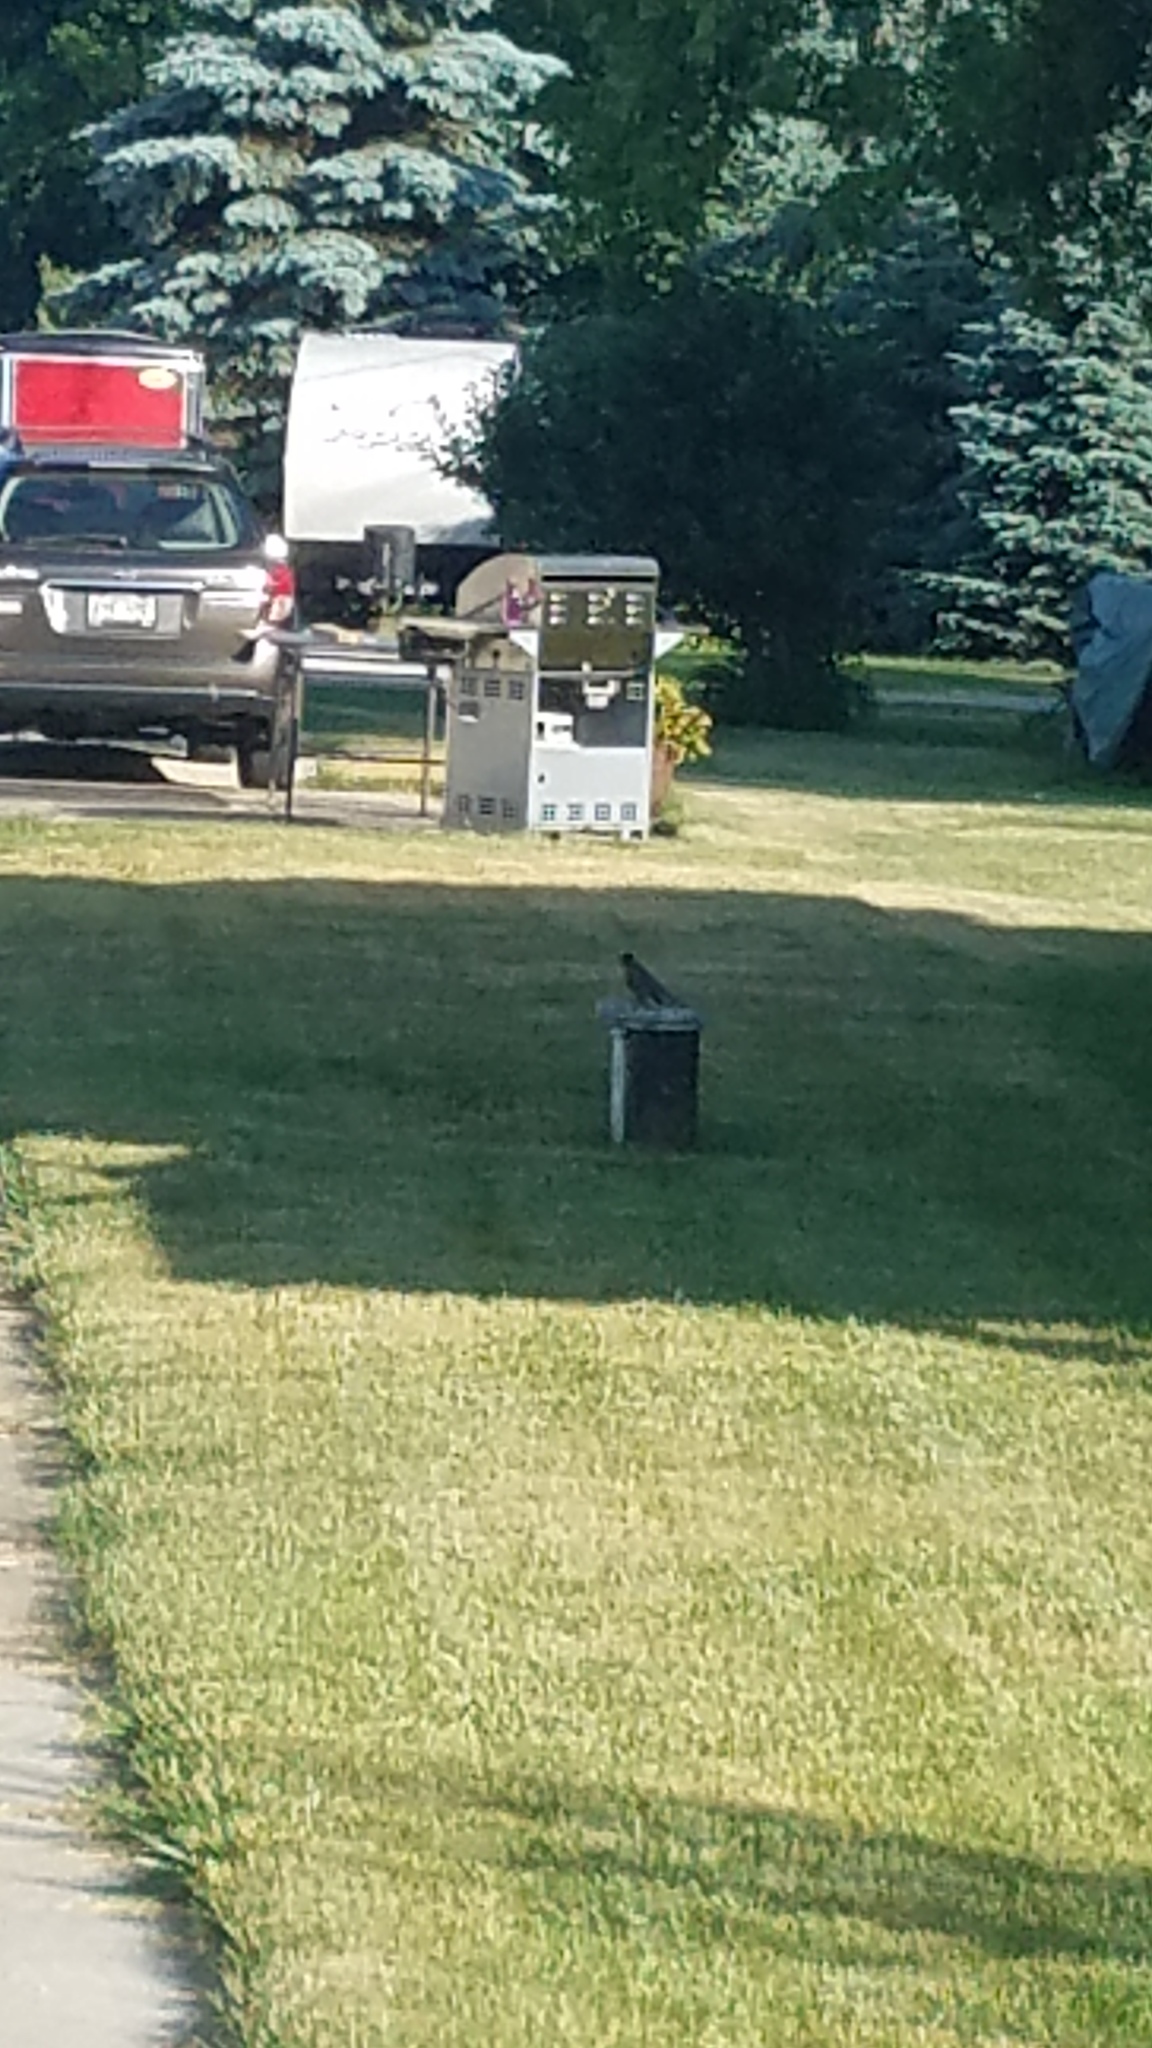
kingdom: Animalia
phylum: Chordata
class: Aves
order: Passeriformes
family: Turdidae
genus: Turdus
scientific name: Turdus migratorius
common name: American robin
